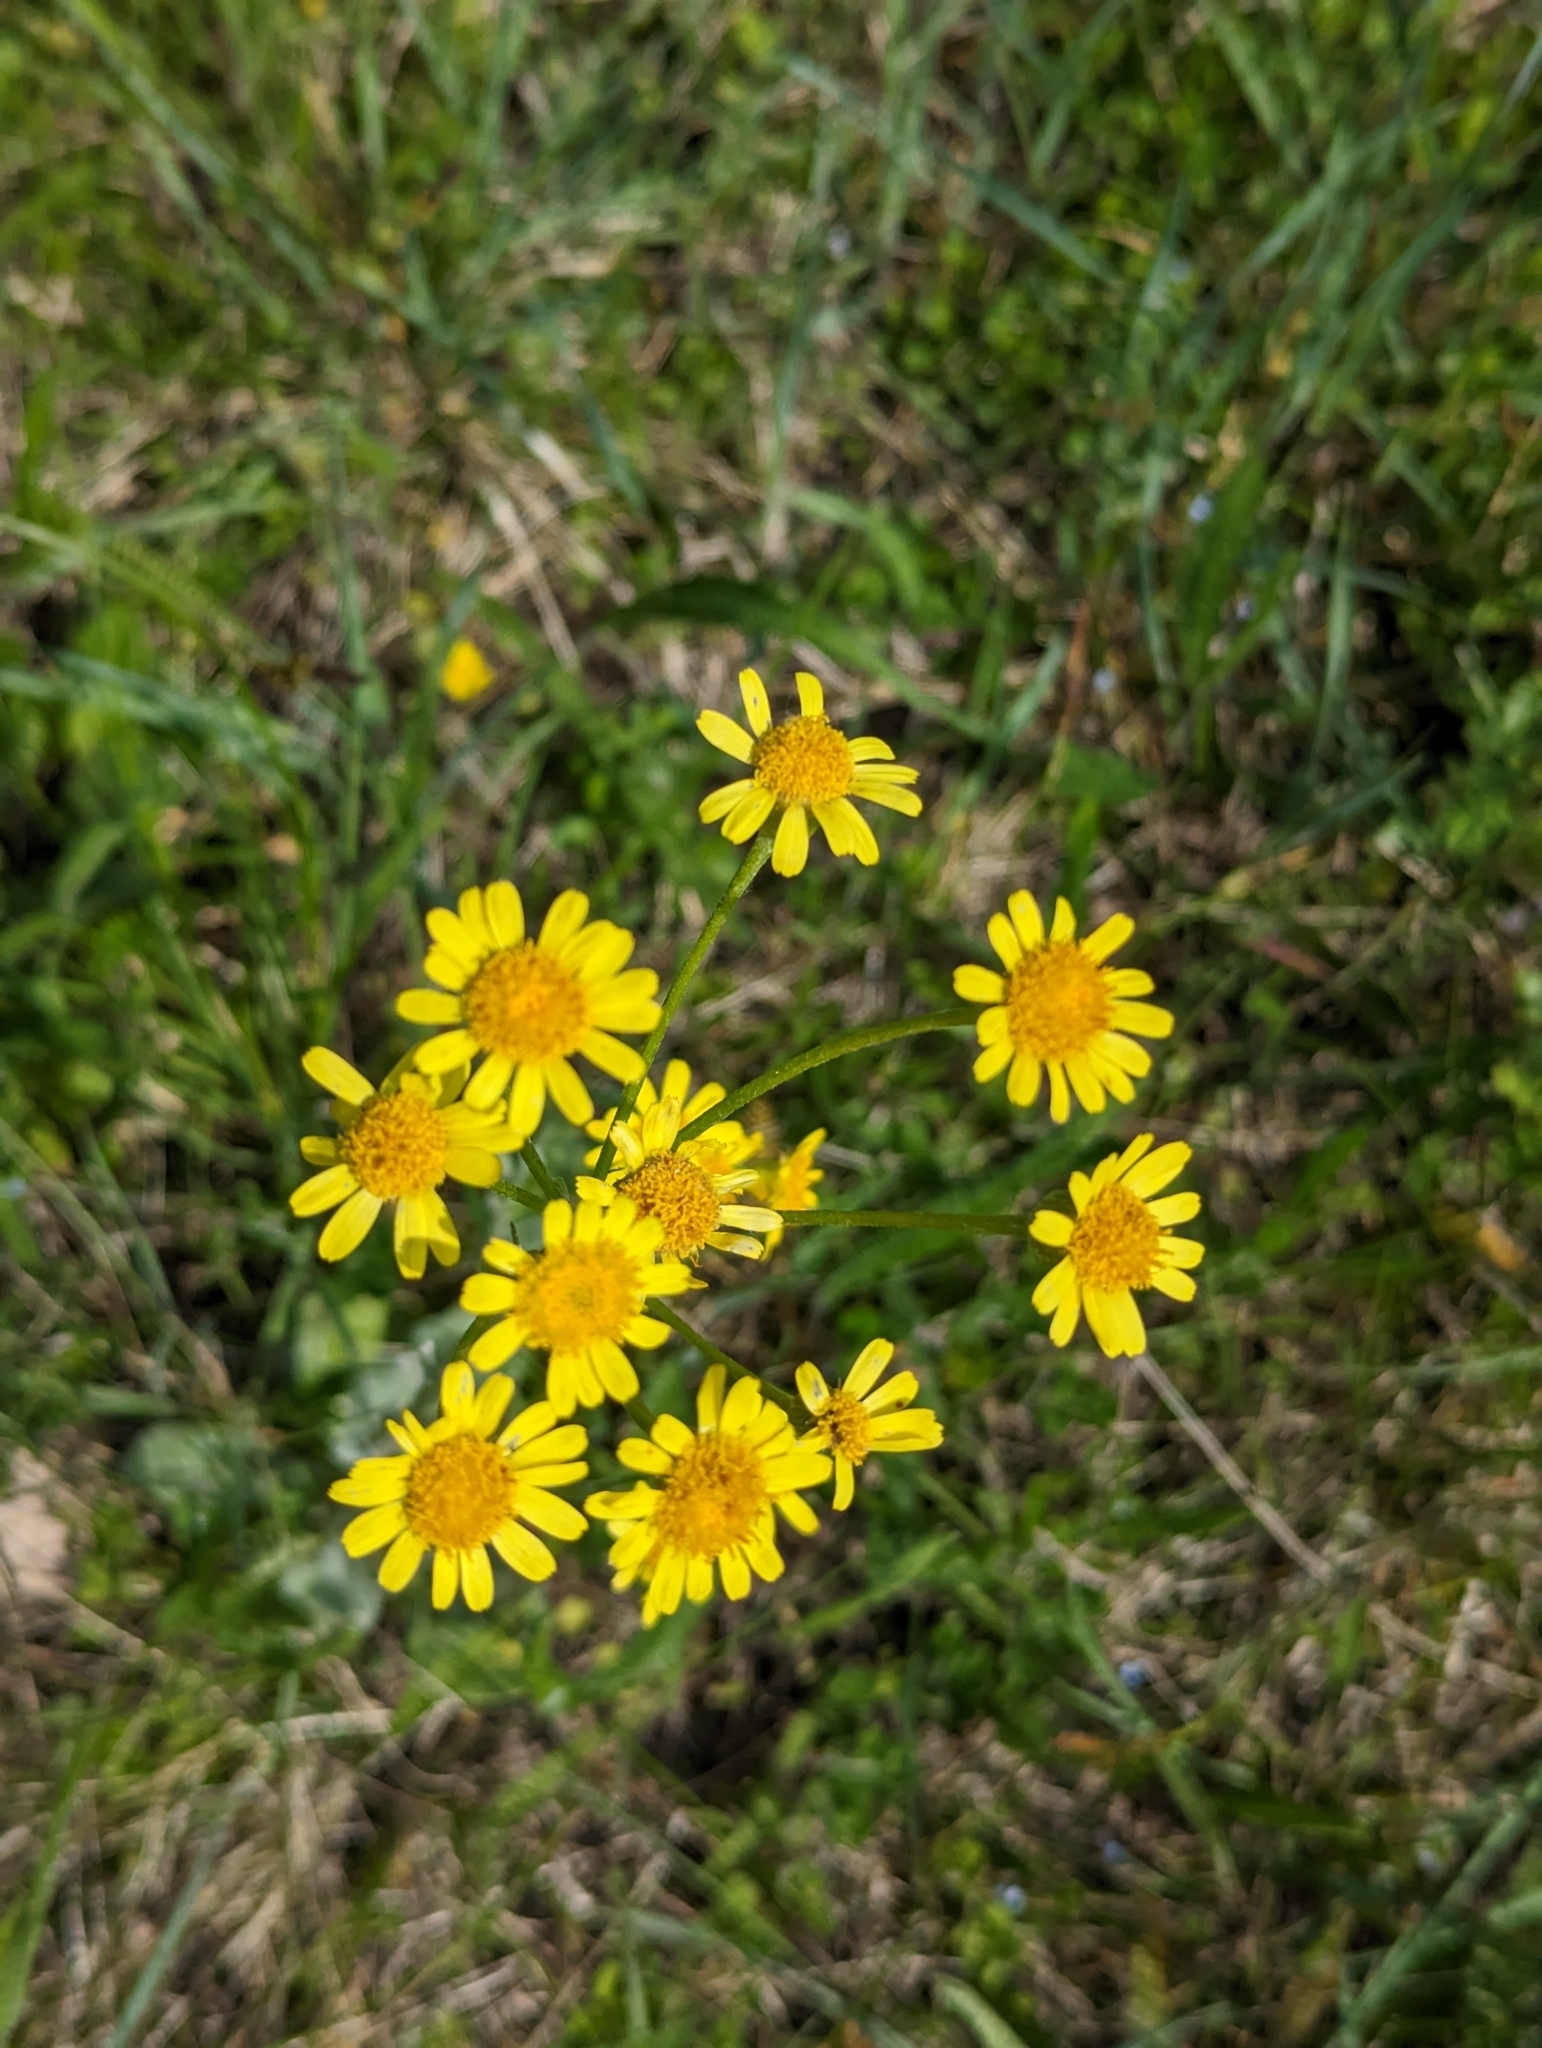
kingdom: Plantae
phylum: Tracheophyta
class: Magnoliopsida
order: Asterales
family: Asteraceae
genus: Tephroseris
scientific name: Tephroseris integrifolia
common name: Field fleawort
